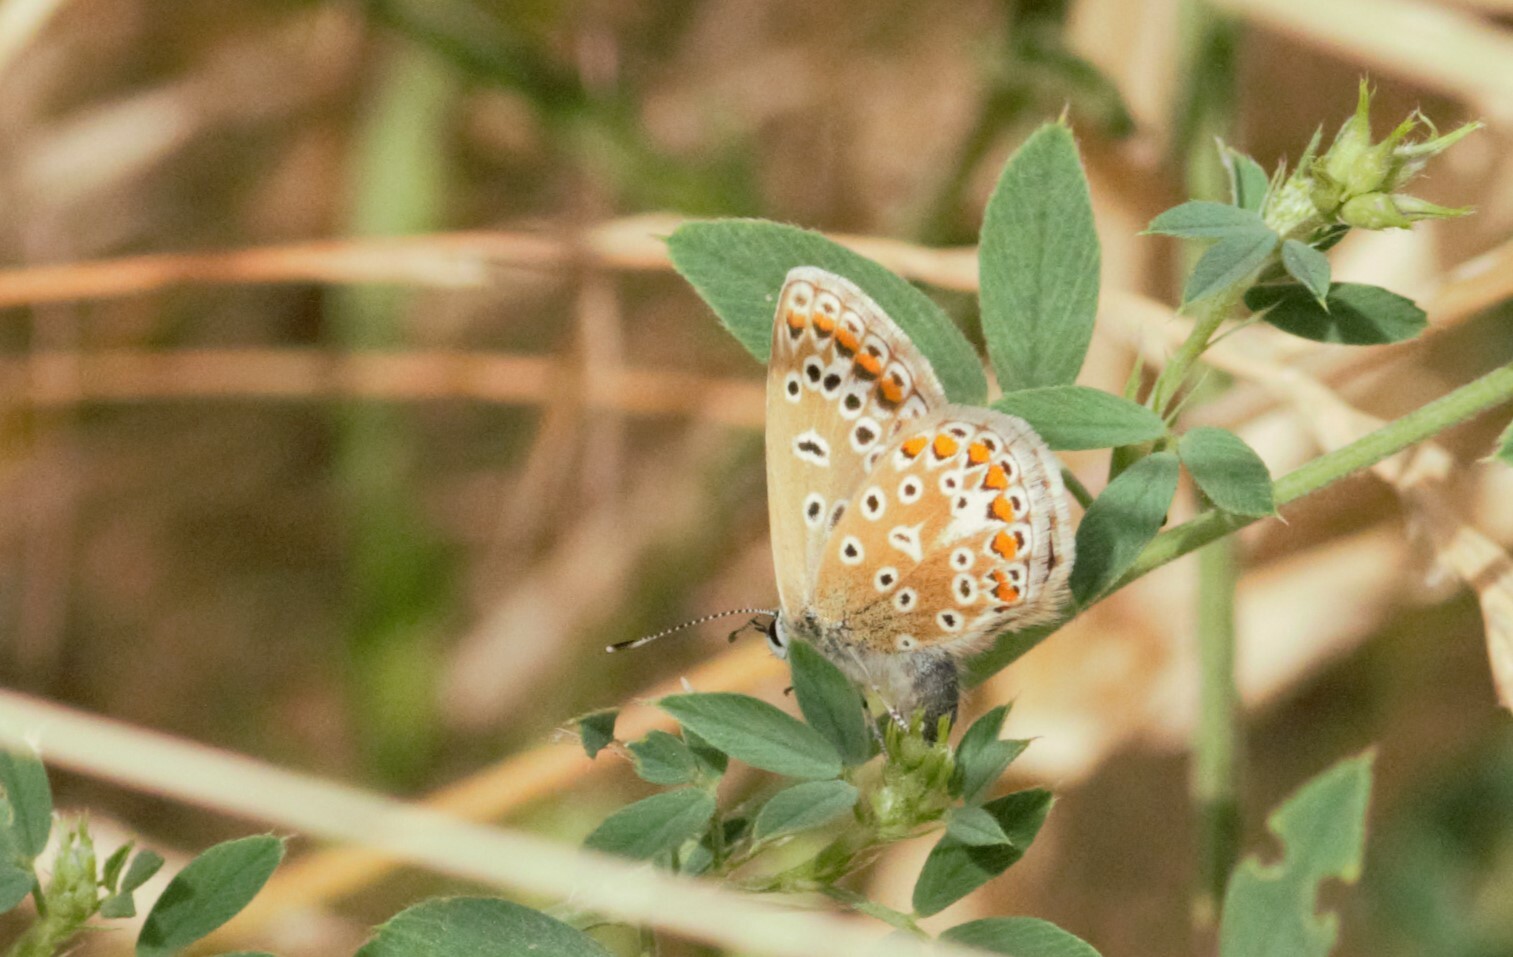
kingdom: Animalia
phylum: Arthropoda
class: Insecta
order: Lepidoptera
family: Lycaenidae
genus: Polyommatus
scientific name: Polyommatus icarus
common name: Common blue
